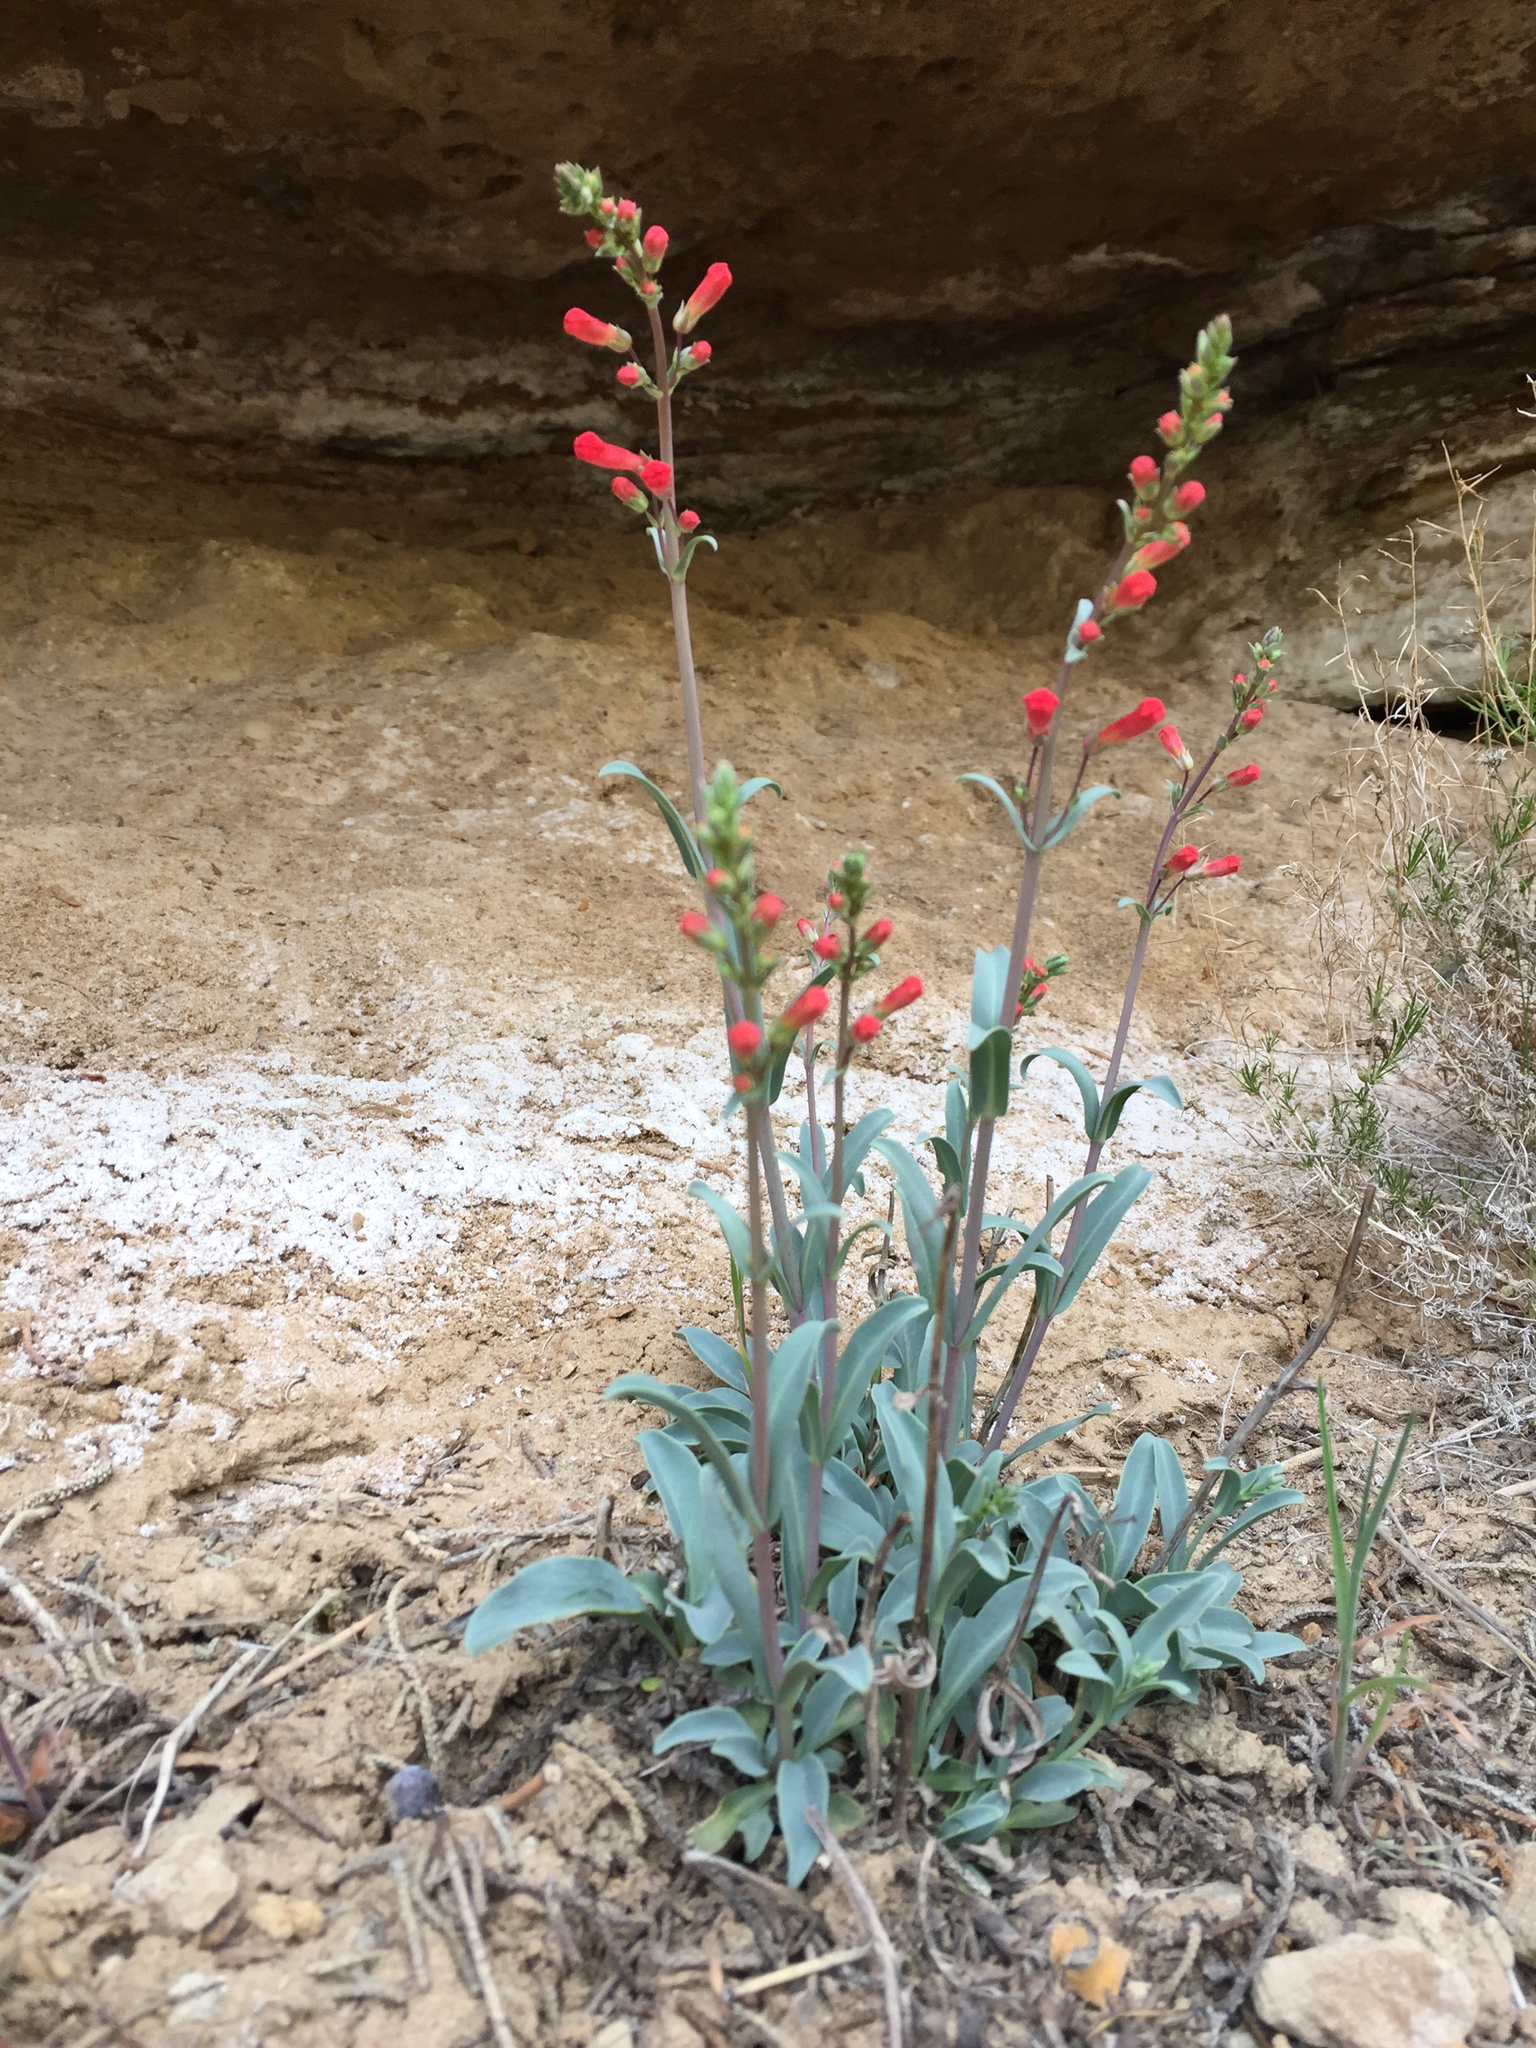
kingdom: Plantae
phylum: Tracheophyta
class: Magnoliopsida
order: Lamiales
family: Plantaginaceae
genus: Penstemon
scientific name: Penstemon utahensis
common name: Utah penstemon
